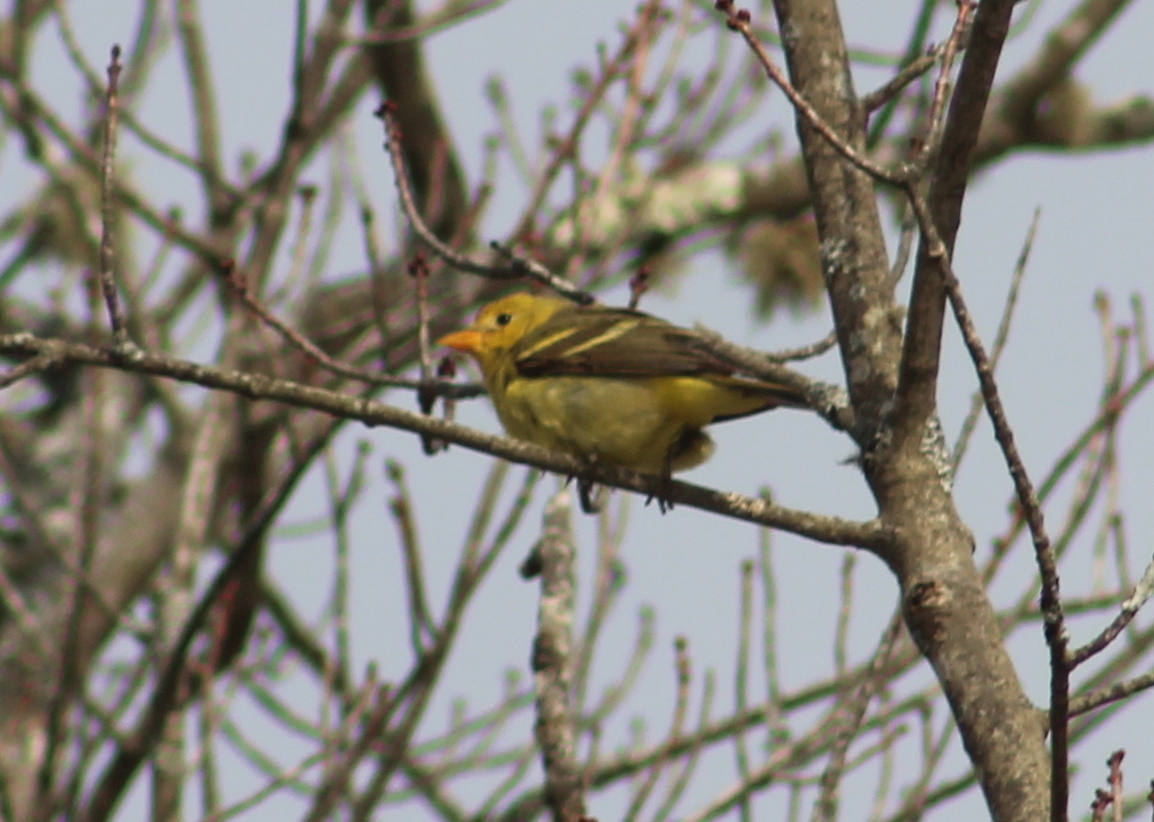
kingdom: Animalia
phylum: Chordata
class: Aves
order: Passeriformes
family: Cardinalidae
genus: Piranga
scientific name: Piranga ludoviciana
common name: Western tanager
